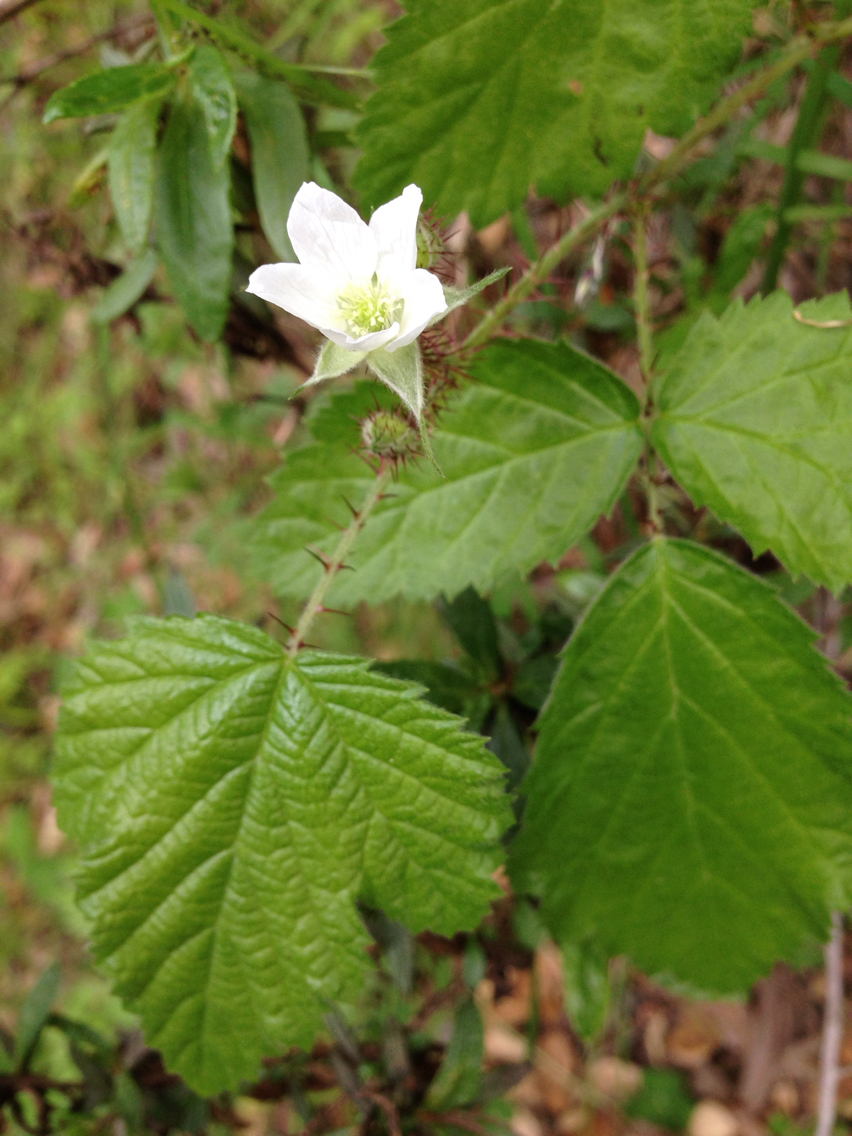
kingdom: Plantae
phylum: Tracheophyta
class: Magnoliopsida
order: Rosales
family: Rosaceae
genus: Rubus
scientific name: Rubus ursinus
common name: Pacific blackberry
